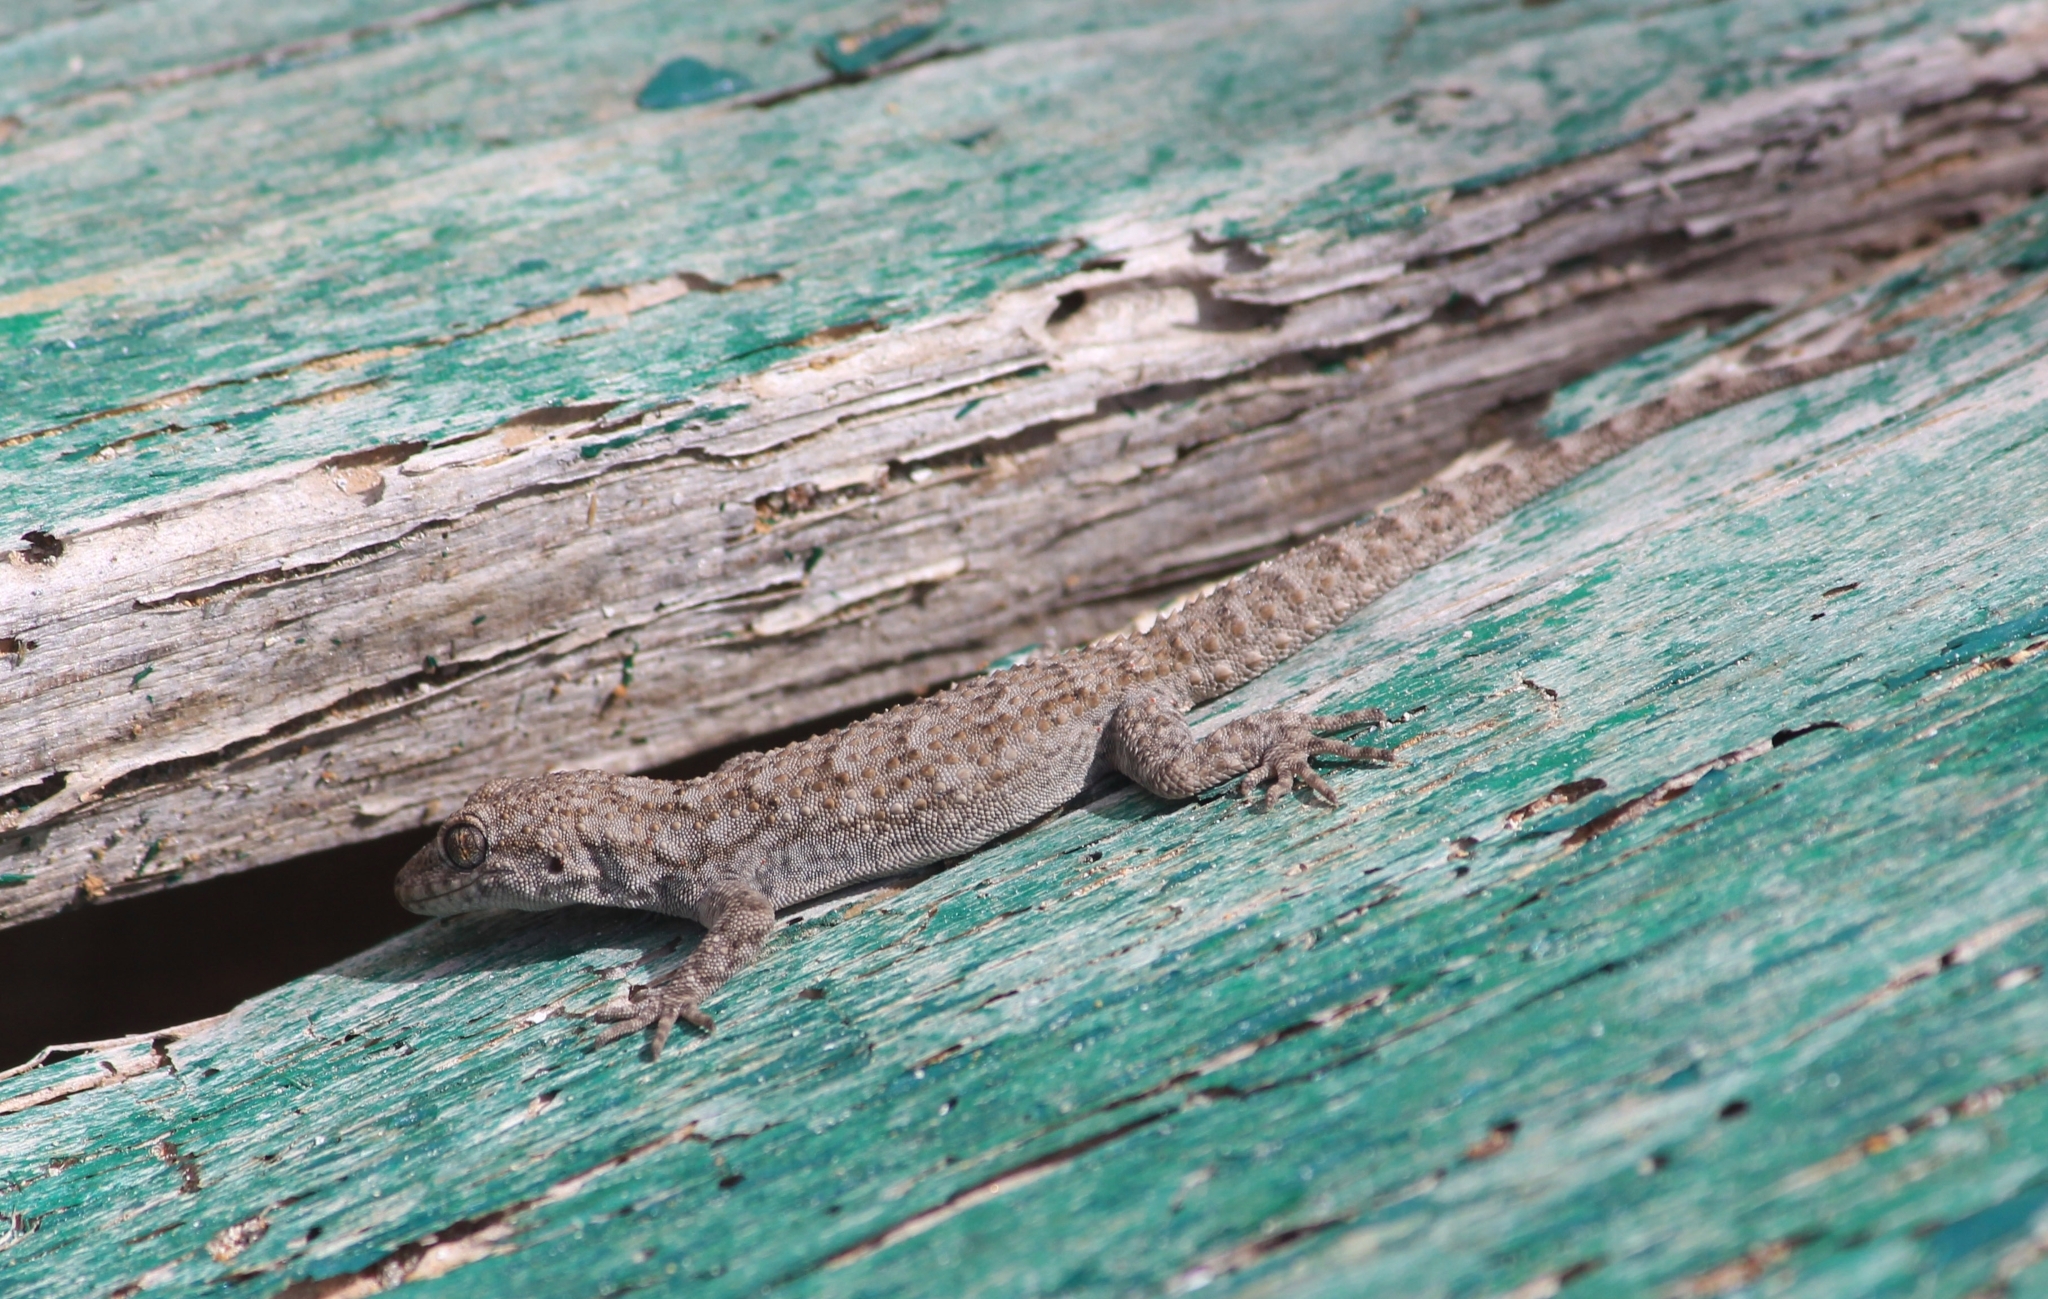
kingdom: Animalia
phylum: Chordata
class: Squamata
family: Gekkonidae
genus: Mediodactylus
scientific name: Mediodactylus kotschyi
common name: Kotschy's gecko
